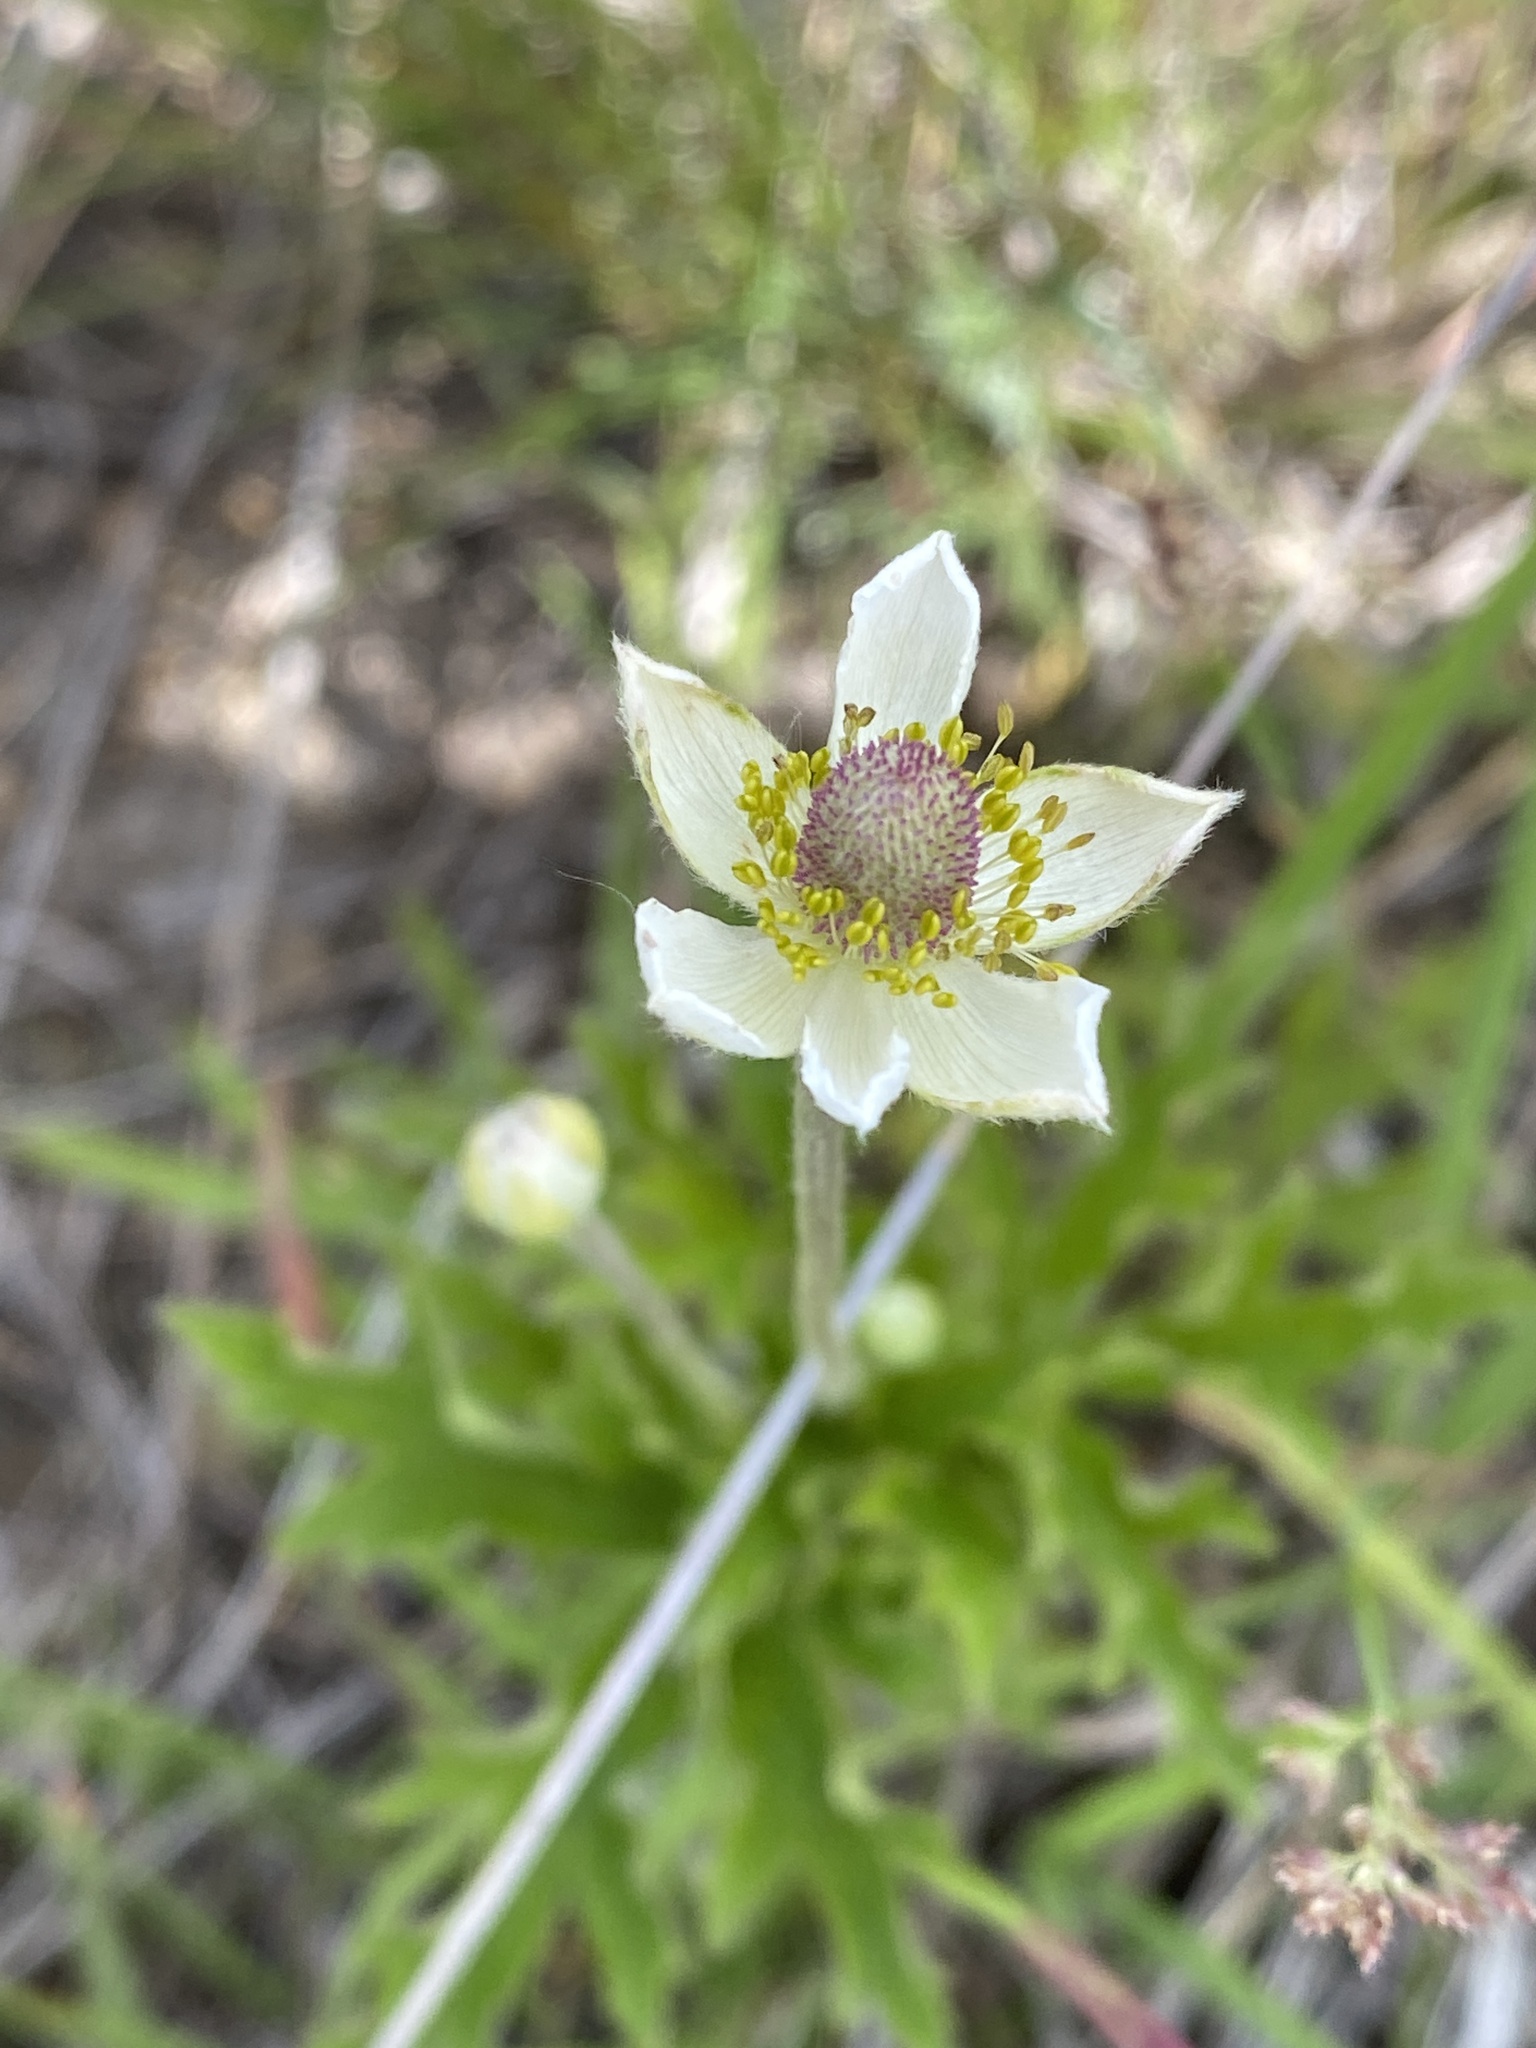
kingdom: Plantae
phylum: Tracheophyta
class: Magnoliopsida
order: Ranunculales
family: Ranunculaceae
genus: Anemone
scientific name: Anemone cylindrica
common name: Candle anemone
